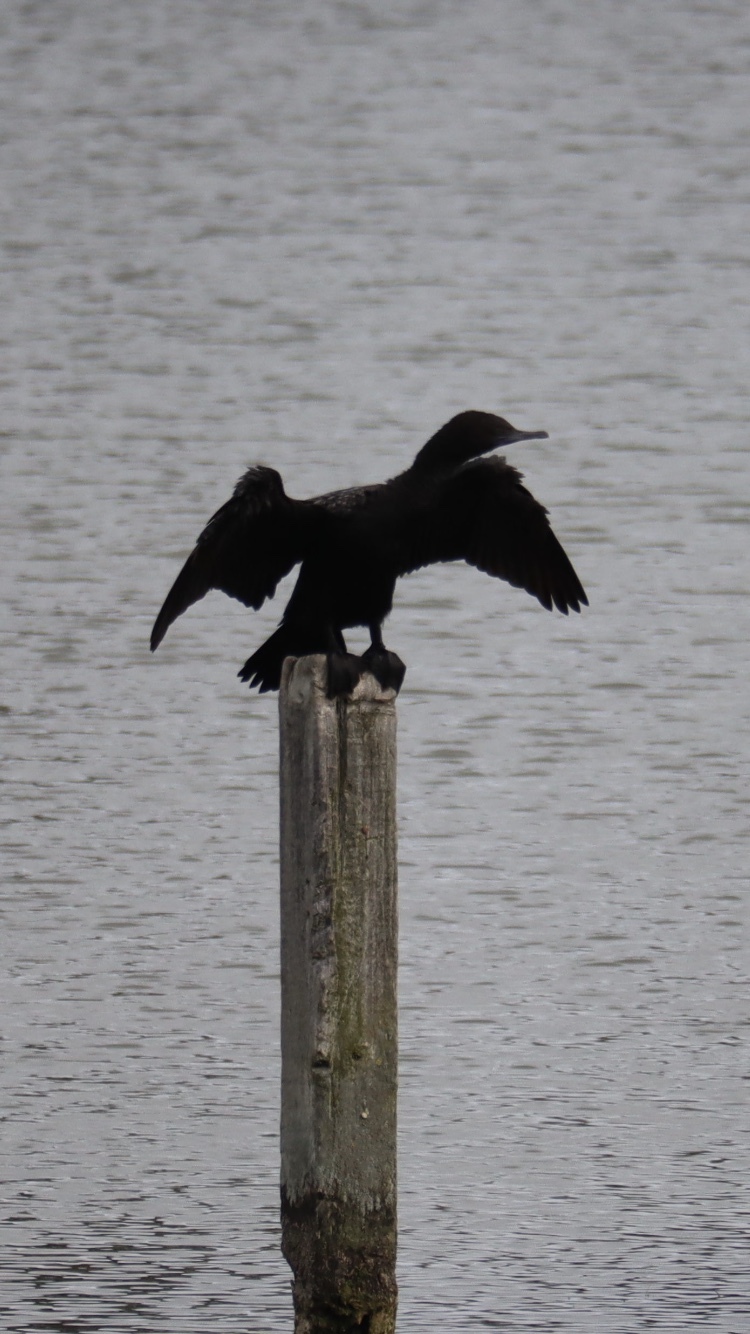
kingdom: Animalia
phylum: Chordata
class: Aves
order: Suliformes
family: Phalacrocoracidae
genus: Phalacrocorax
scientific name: Phalacrocorax sulcirostris
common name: Little black cormorant
